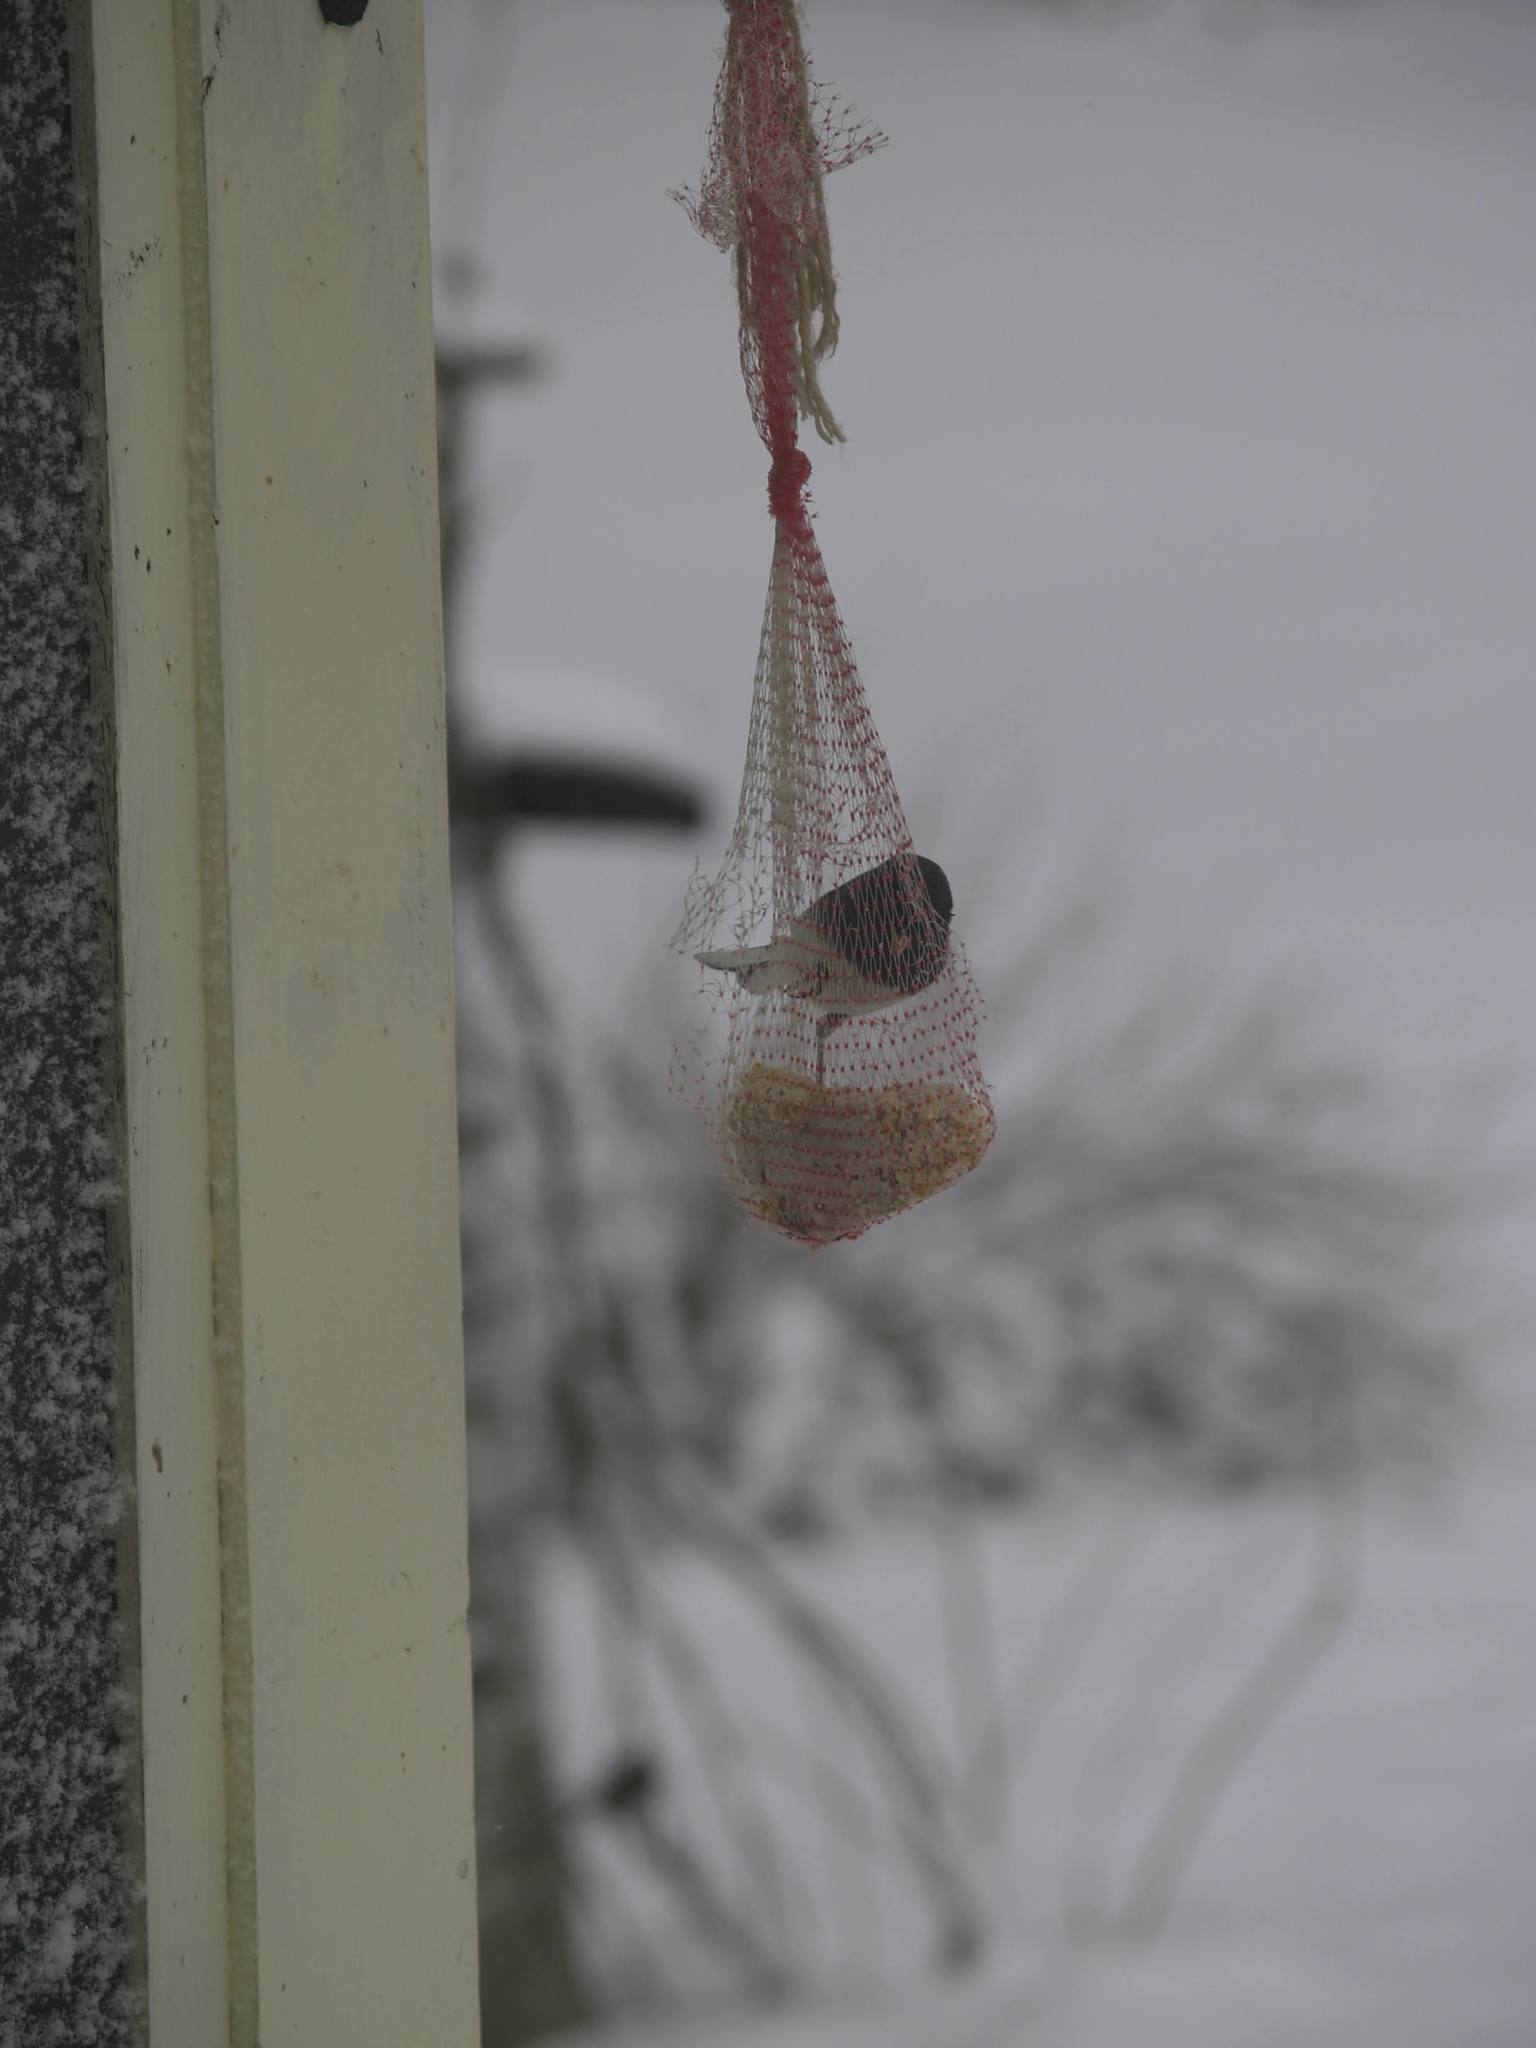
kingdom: Animalia
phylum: Chordata
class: Aves
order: Passeriformes
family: Passerellidae
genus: Junco
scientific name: Junco hyemalis
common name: Dark-eyed junco
